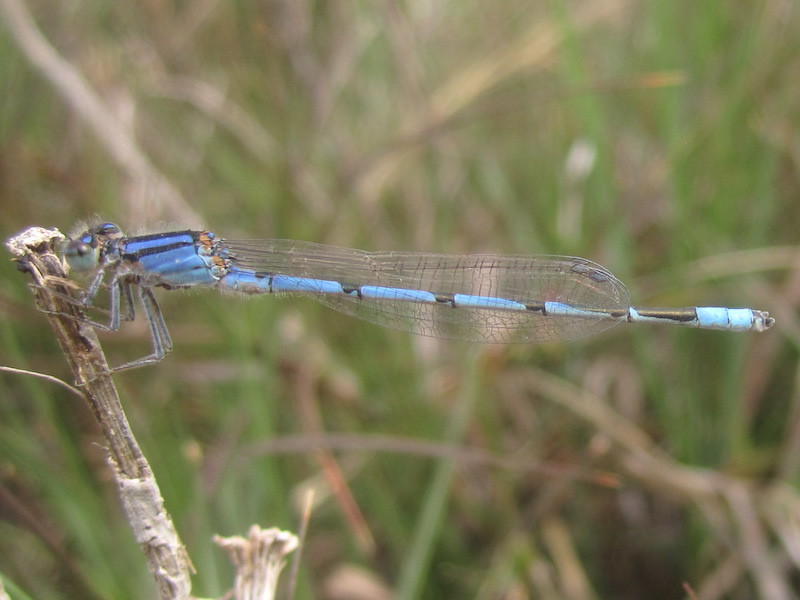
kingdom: Animalia
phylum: Arthropoda
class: Insecta
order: Odonata
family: Coenagrionidae
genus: Enallagma
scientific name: Enallagma civile
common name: Damselfly
